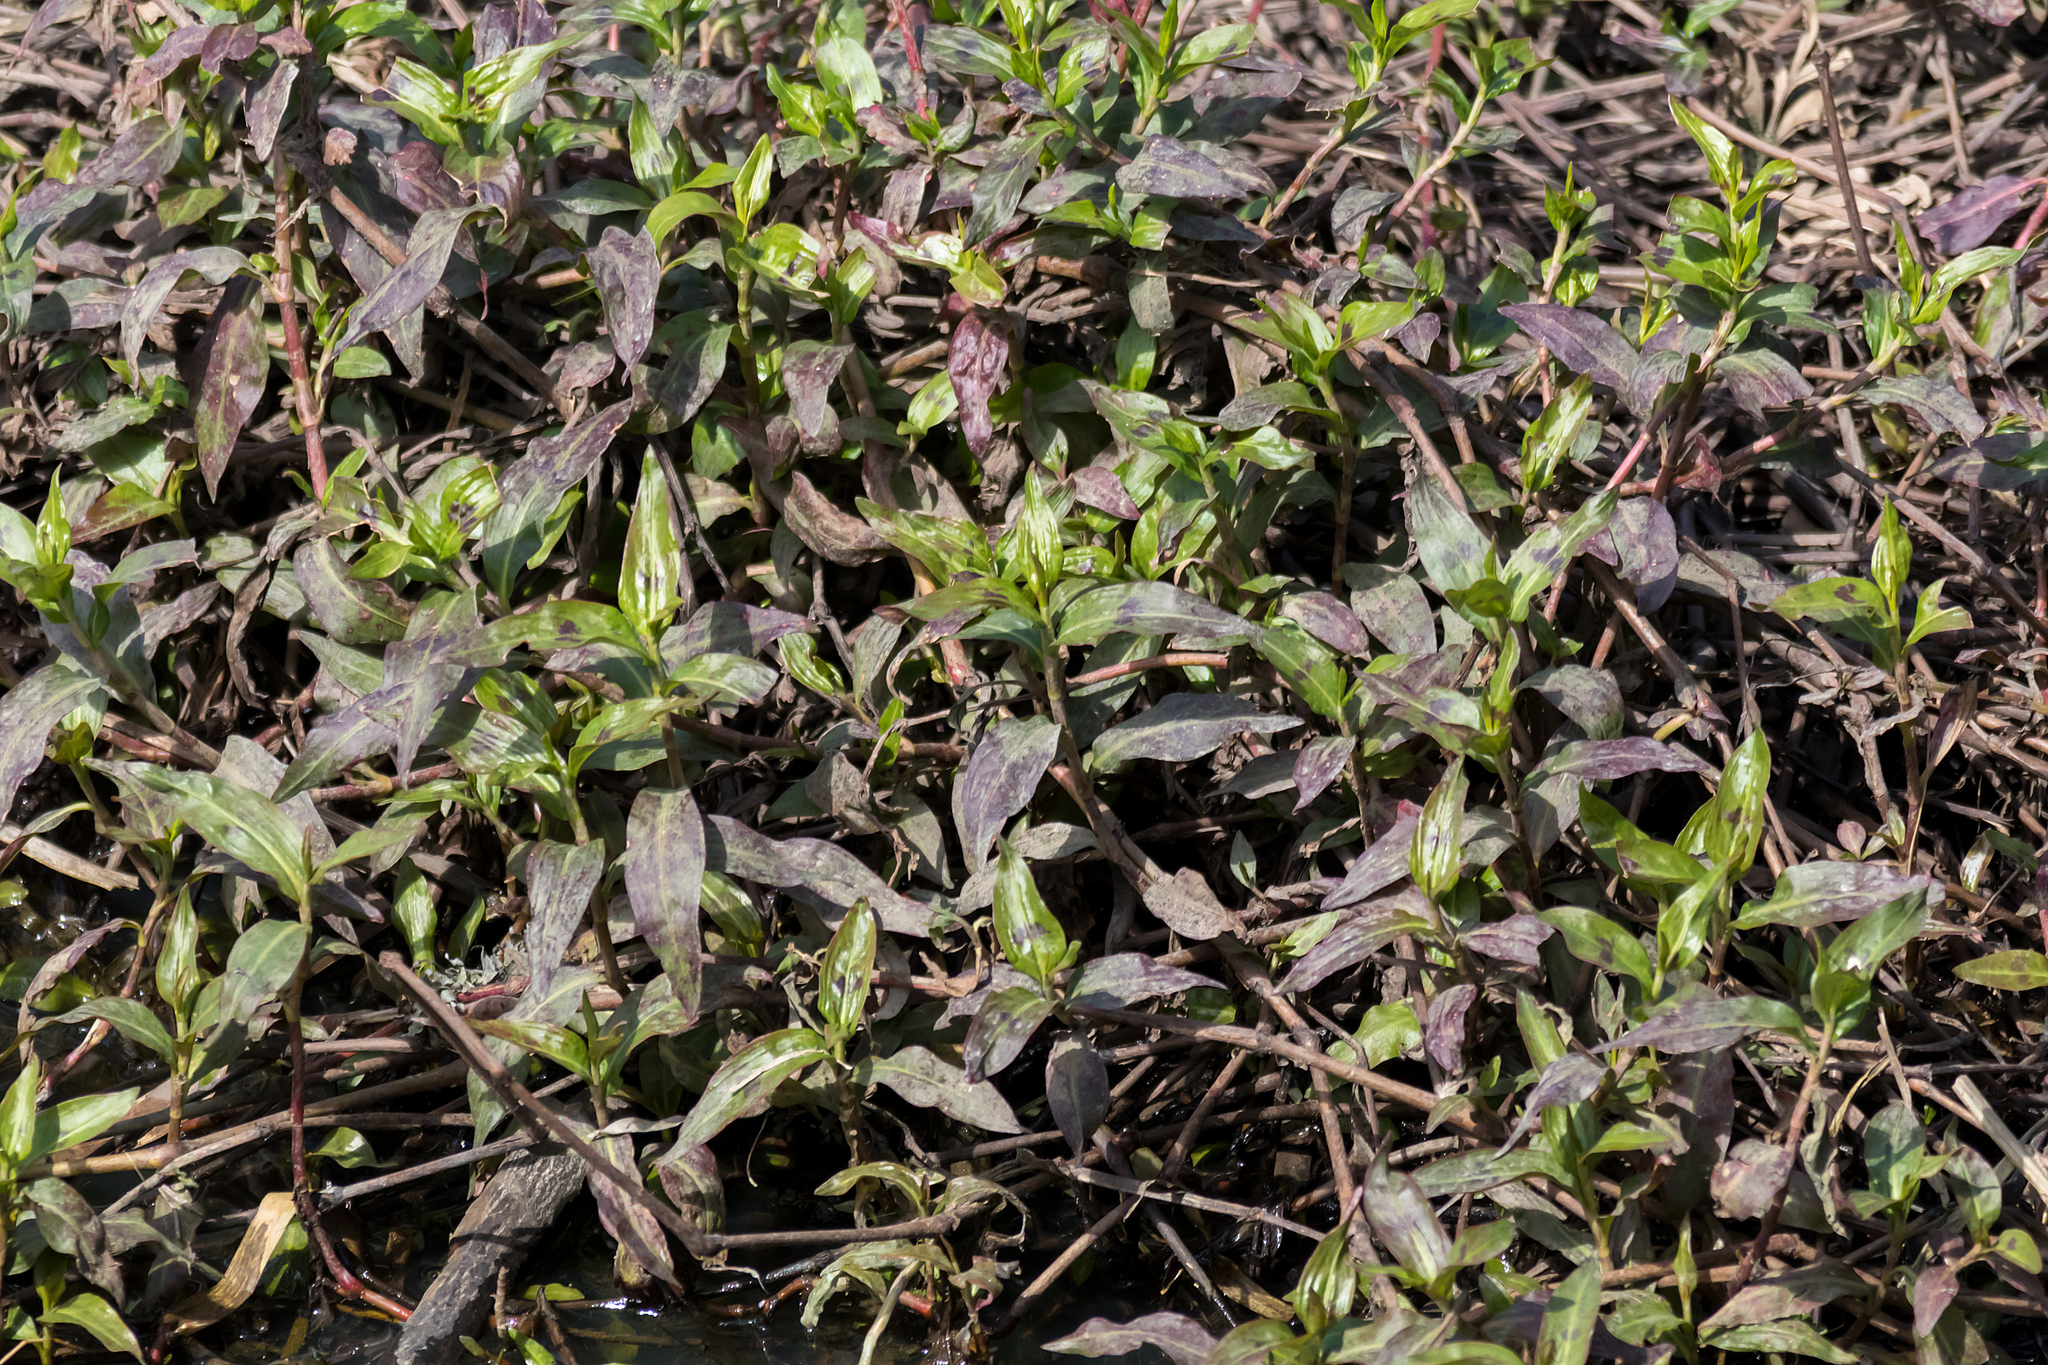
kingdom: Plantae
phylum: Tracheophyta
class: Magnoliopsida
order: Caryophyllales
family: Polygonaceae
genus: Persicaria
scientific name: Persicaria decipiens
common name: Willow-weed
